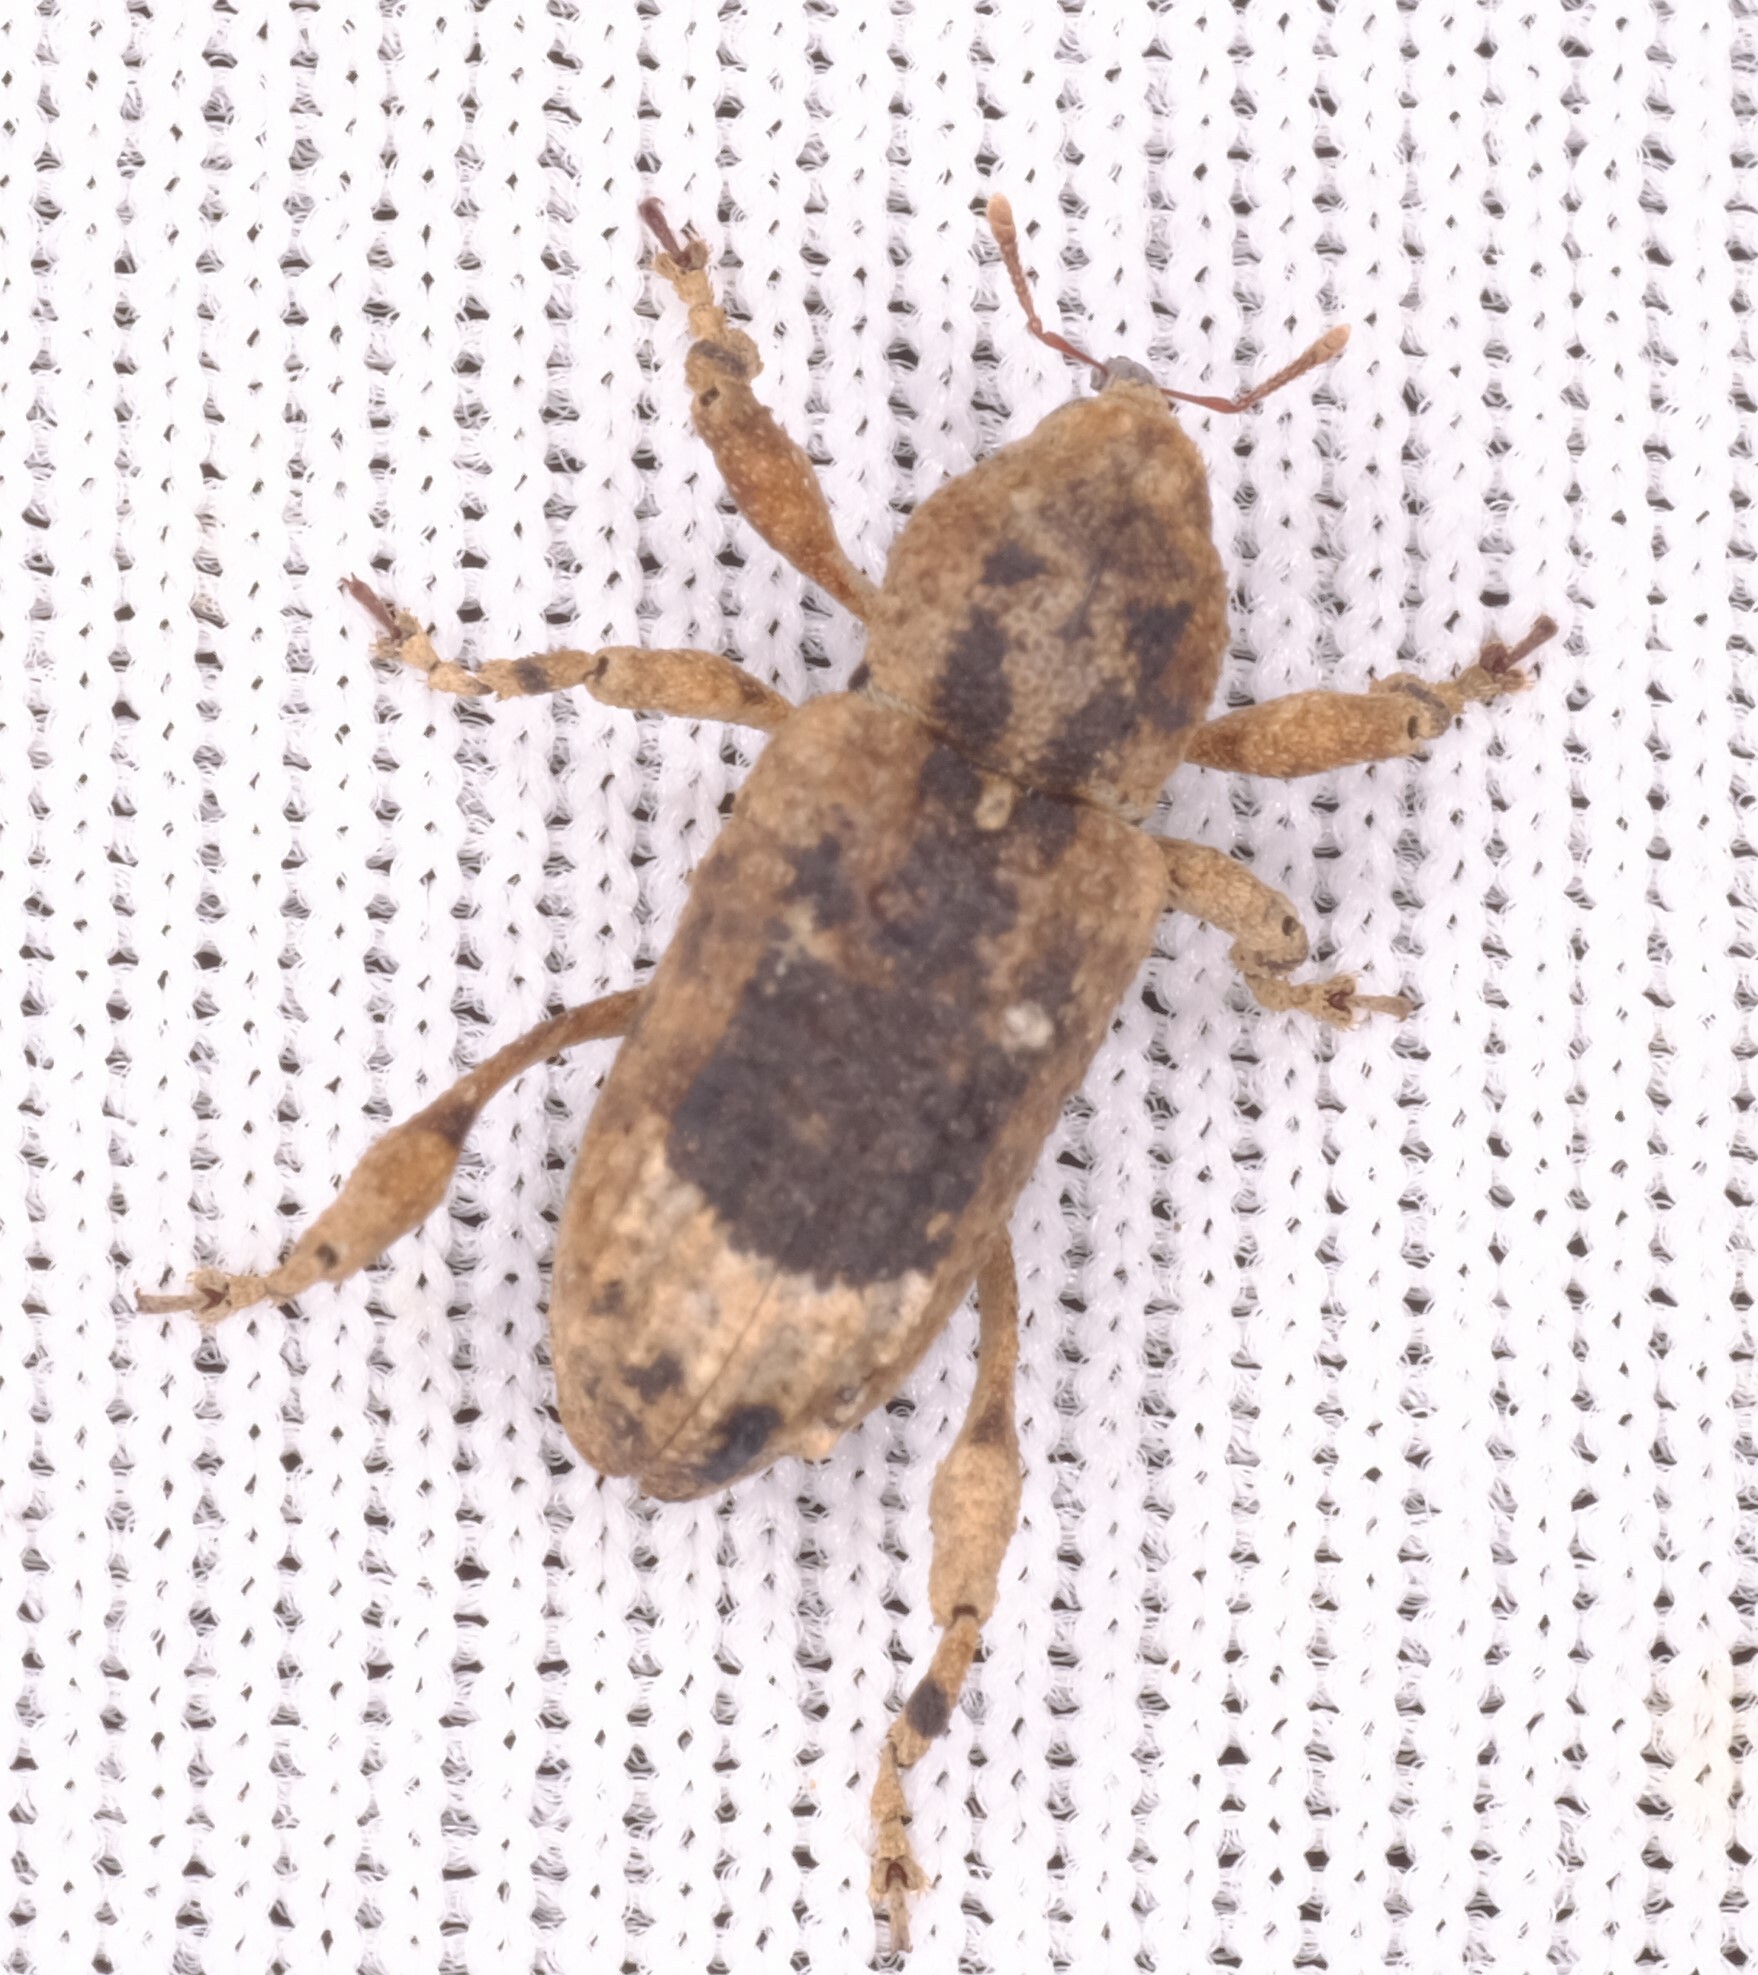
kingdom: Animalia
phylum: Arthropoda
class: Insecta
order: Coleoptera
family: Curculionidae
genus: Camptorhinus
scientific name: Camptorhinus dorsalis
